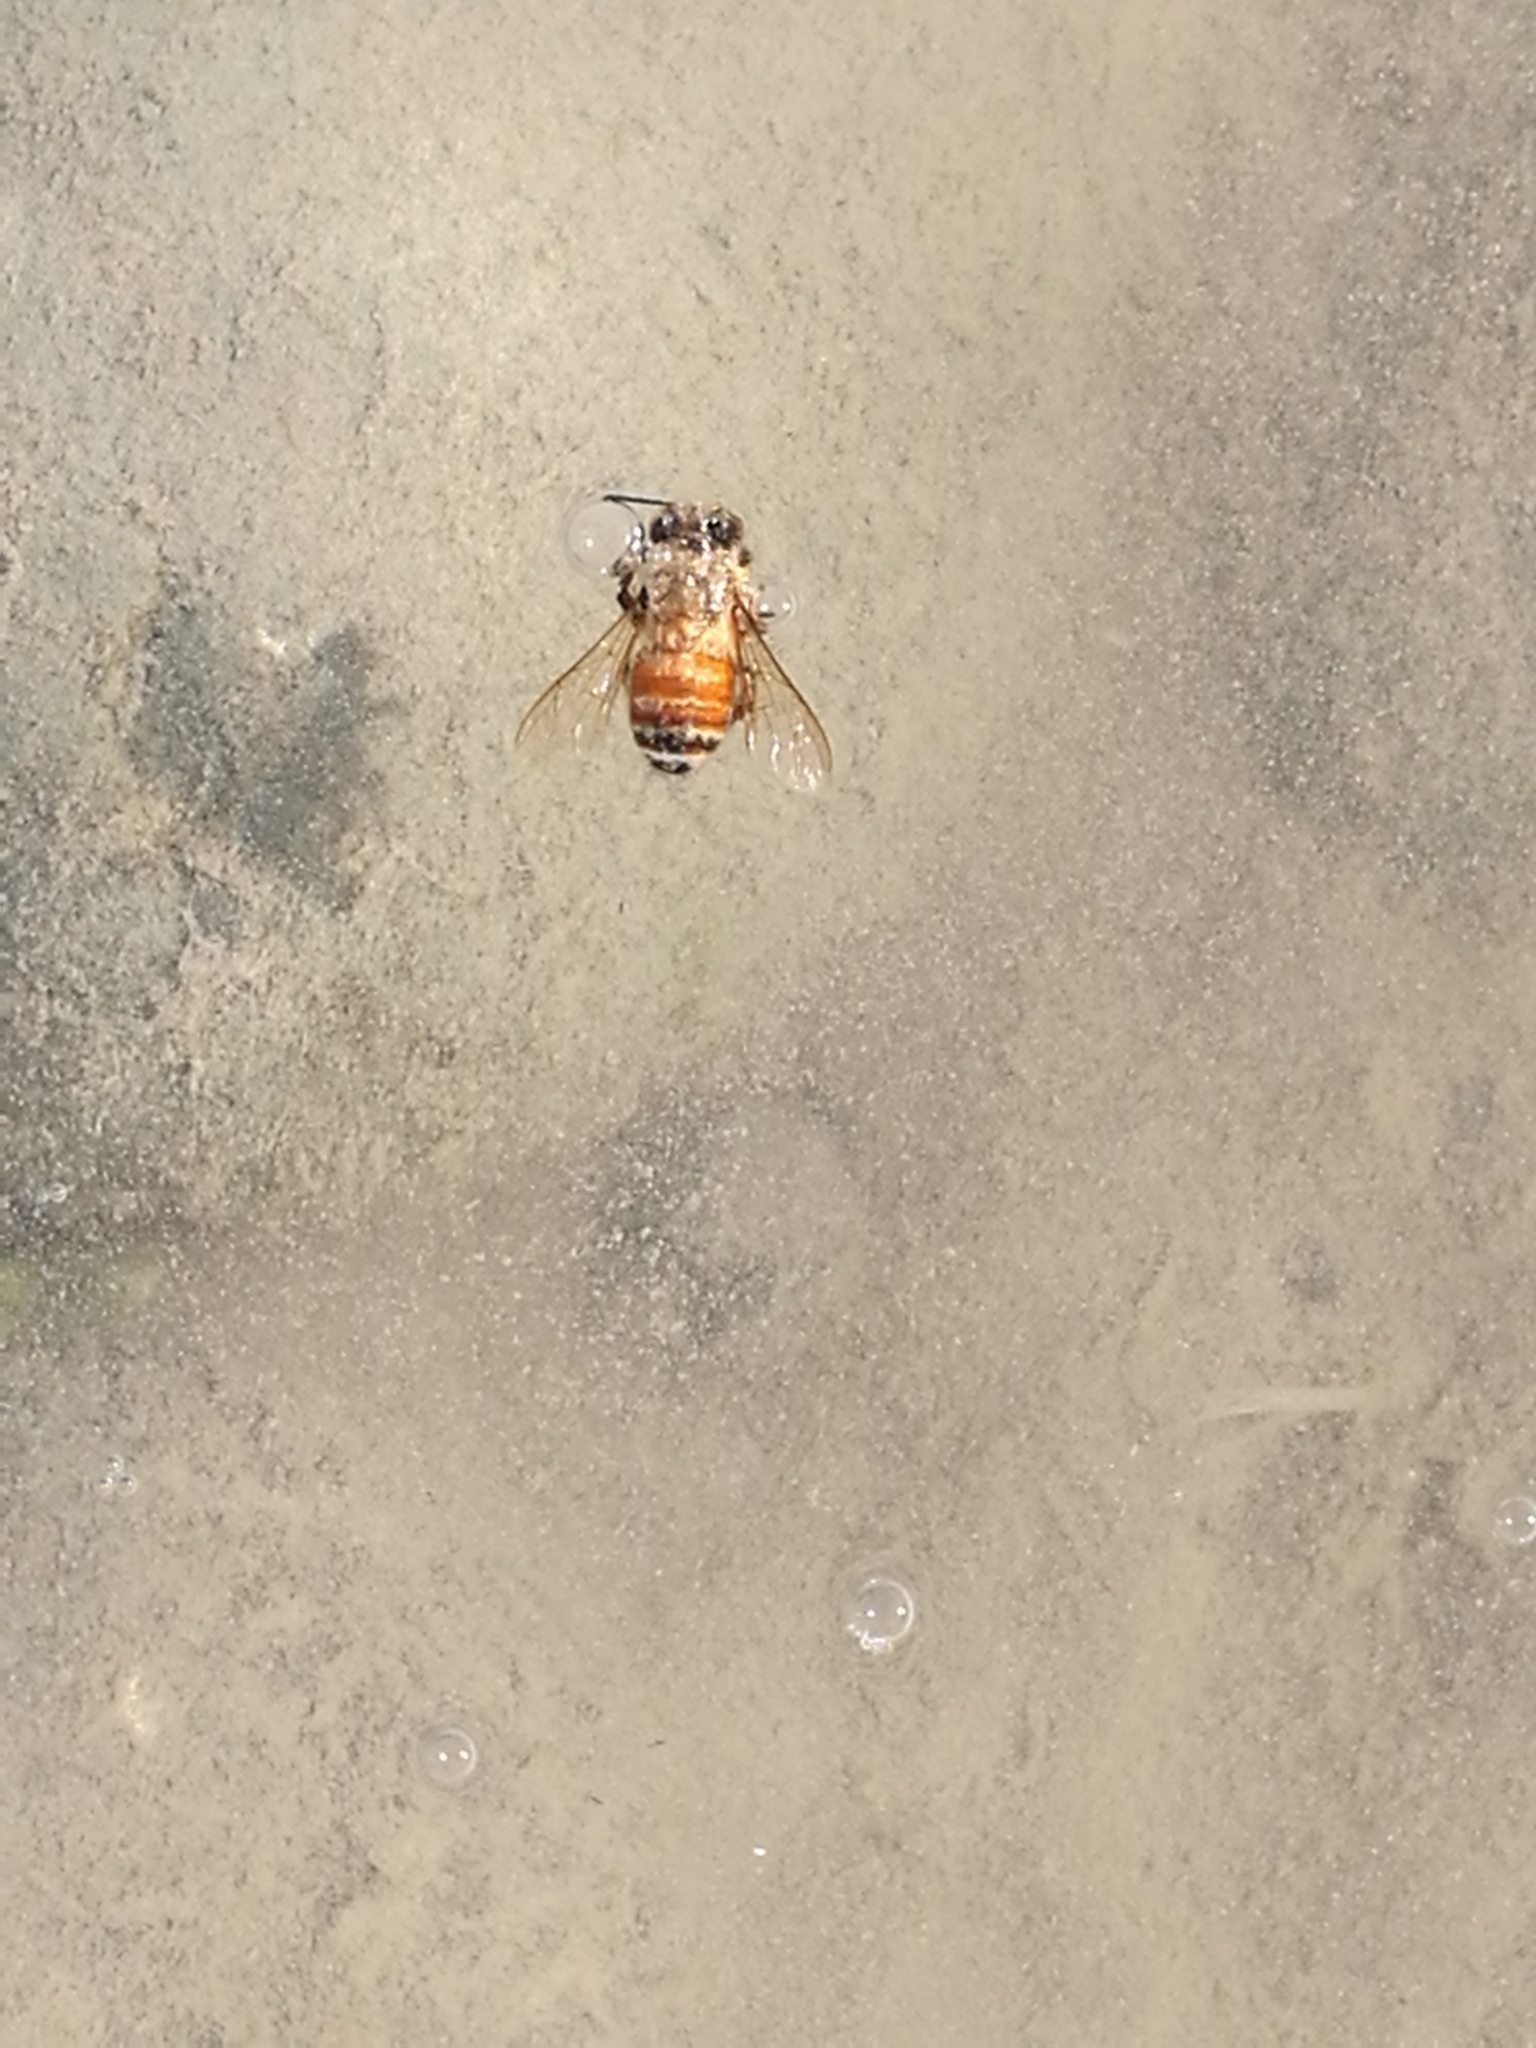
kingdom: Animalia
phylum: Arthropoda
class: Insecta
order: Hymenoptera
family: Apidae
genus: Apis
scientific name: Apis mellifera
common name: Honey bee
